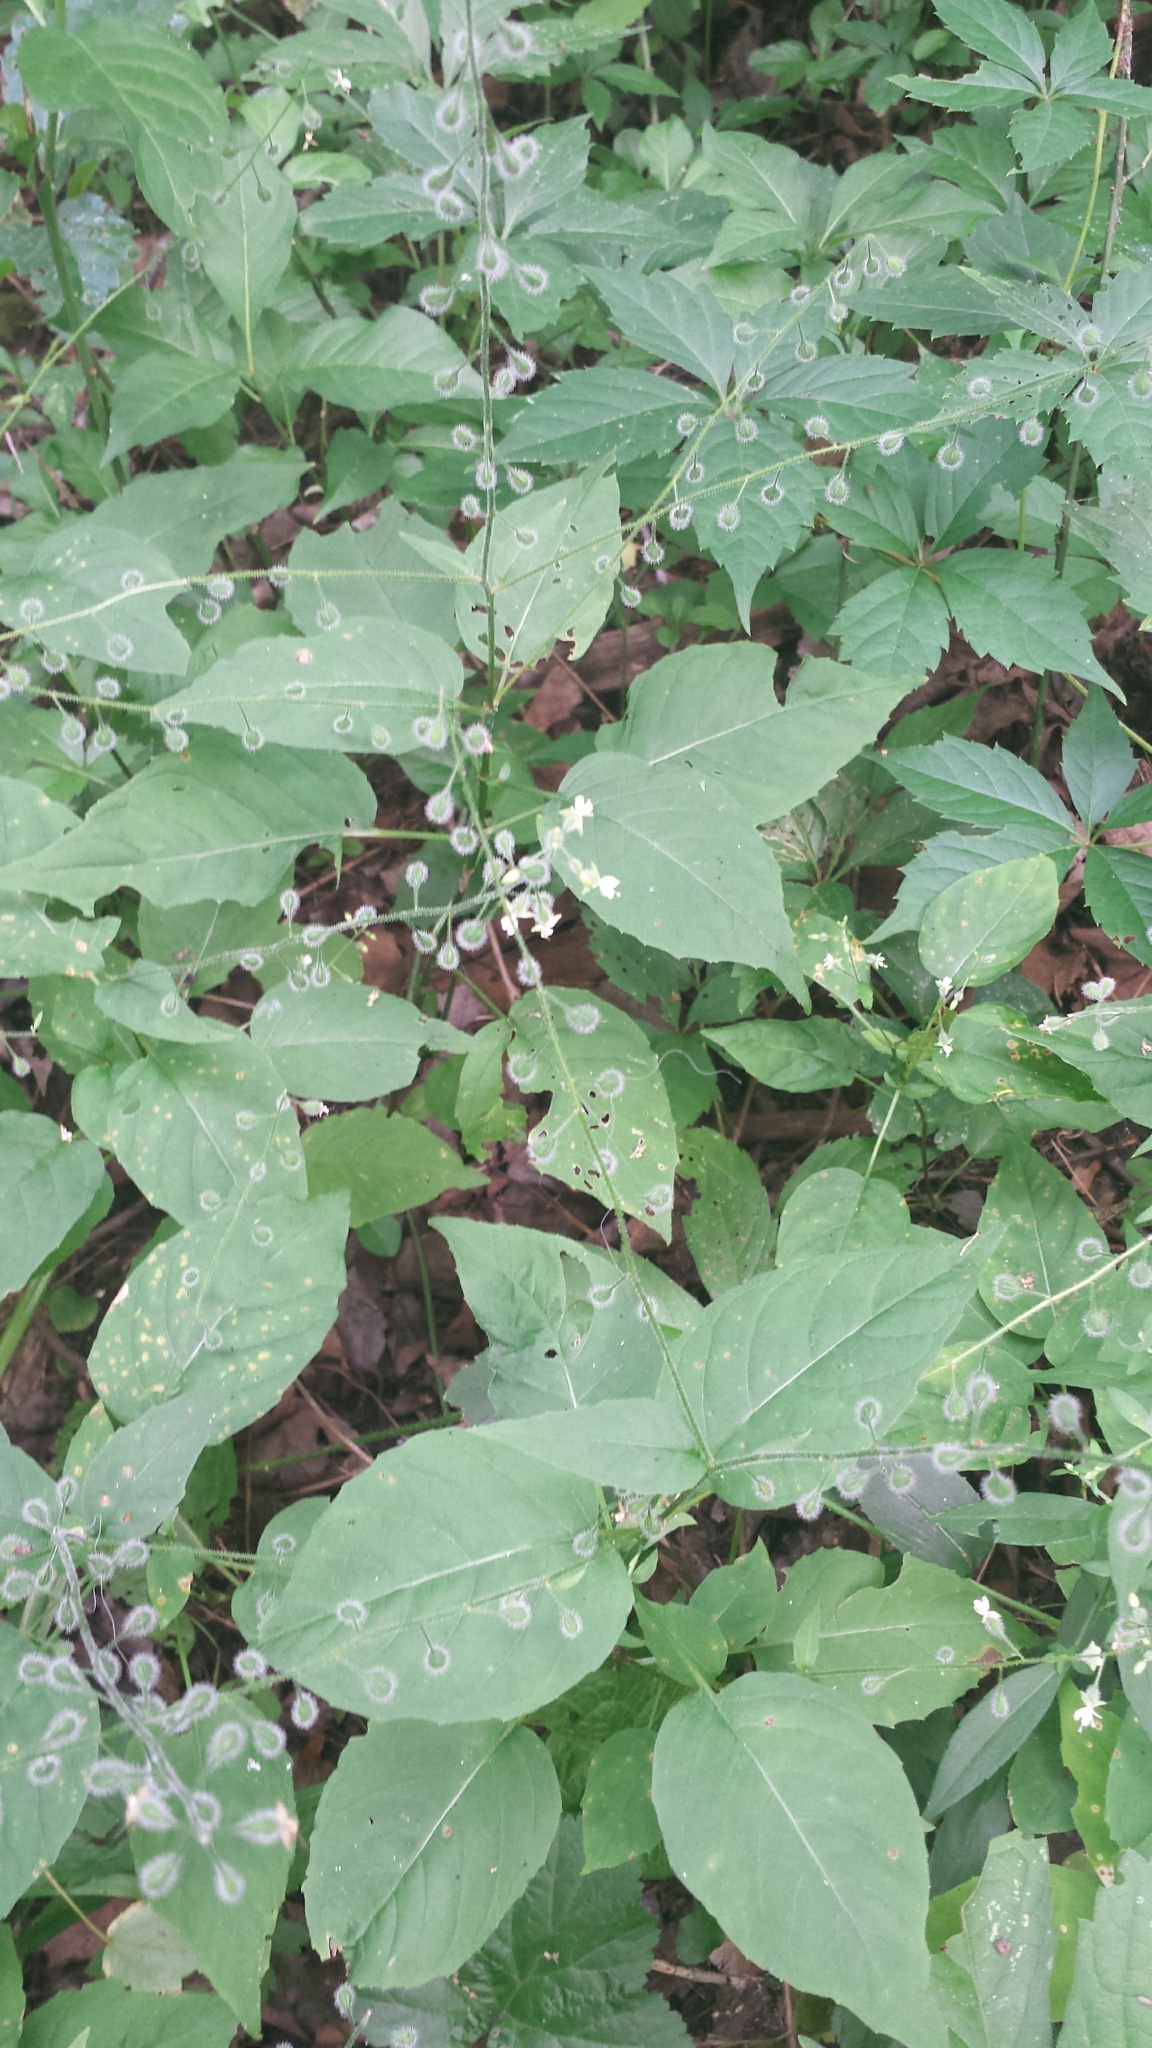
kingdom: Plantae
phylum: Tracheophyta
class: Magnoliopsida
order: Myrtales
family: Onagraceae
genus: Circaea
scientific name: Circaea canadensis
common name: Broad-leaved enchanter's nightshade
